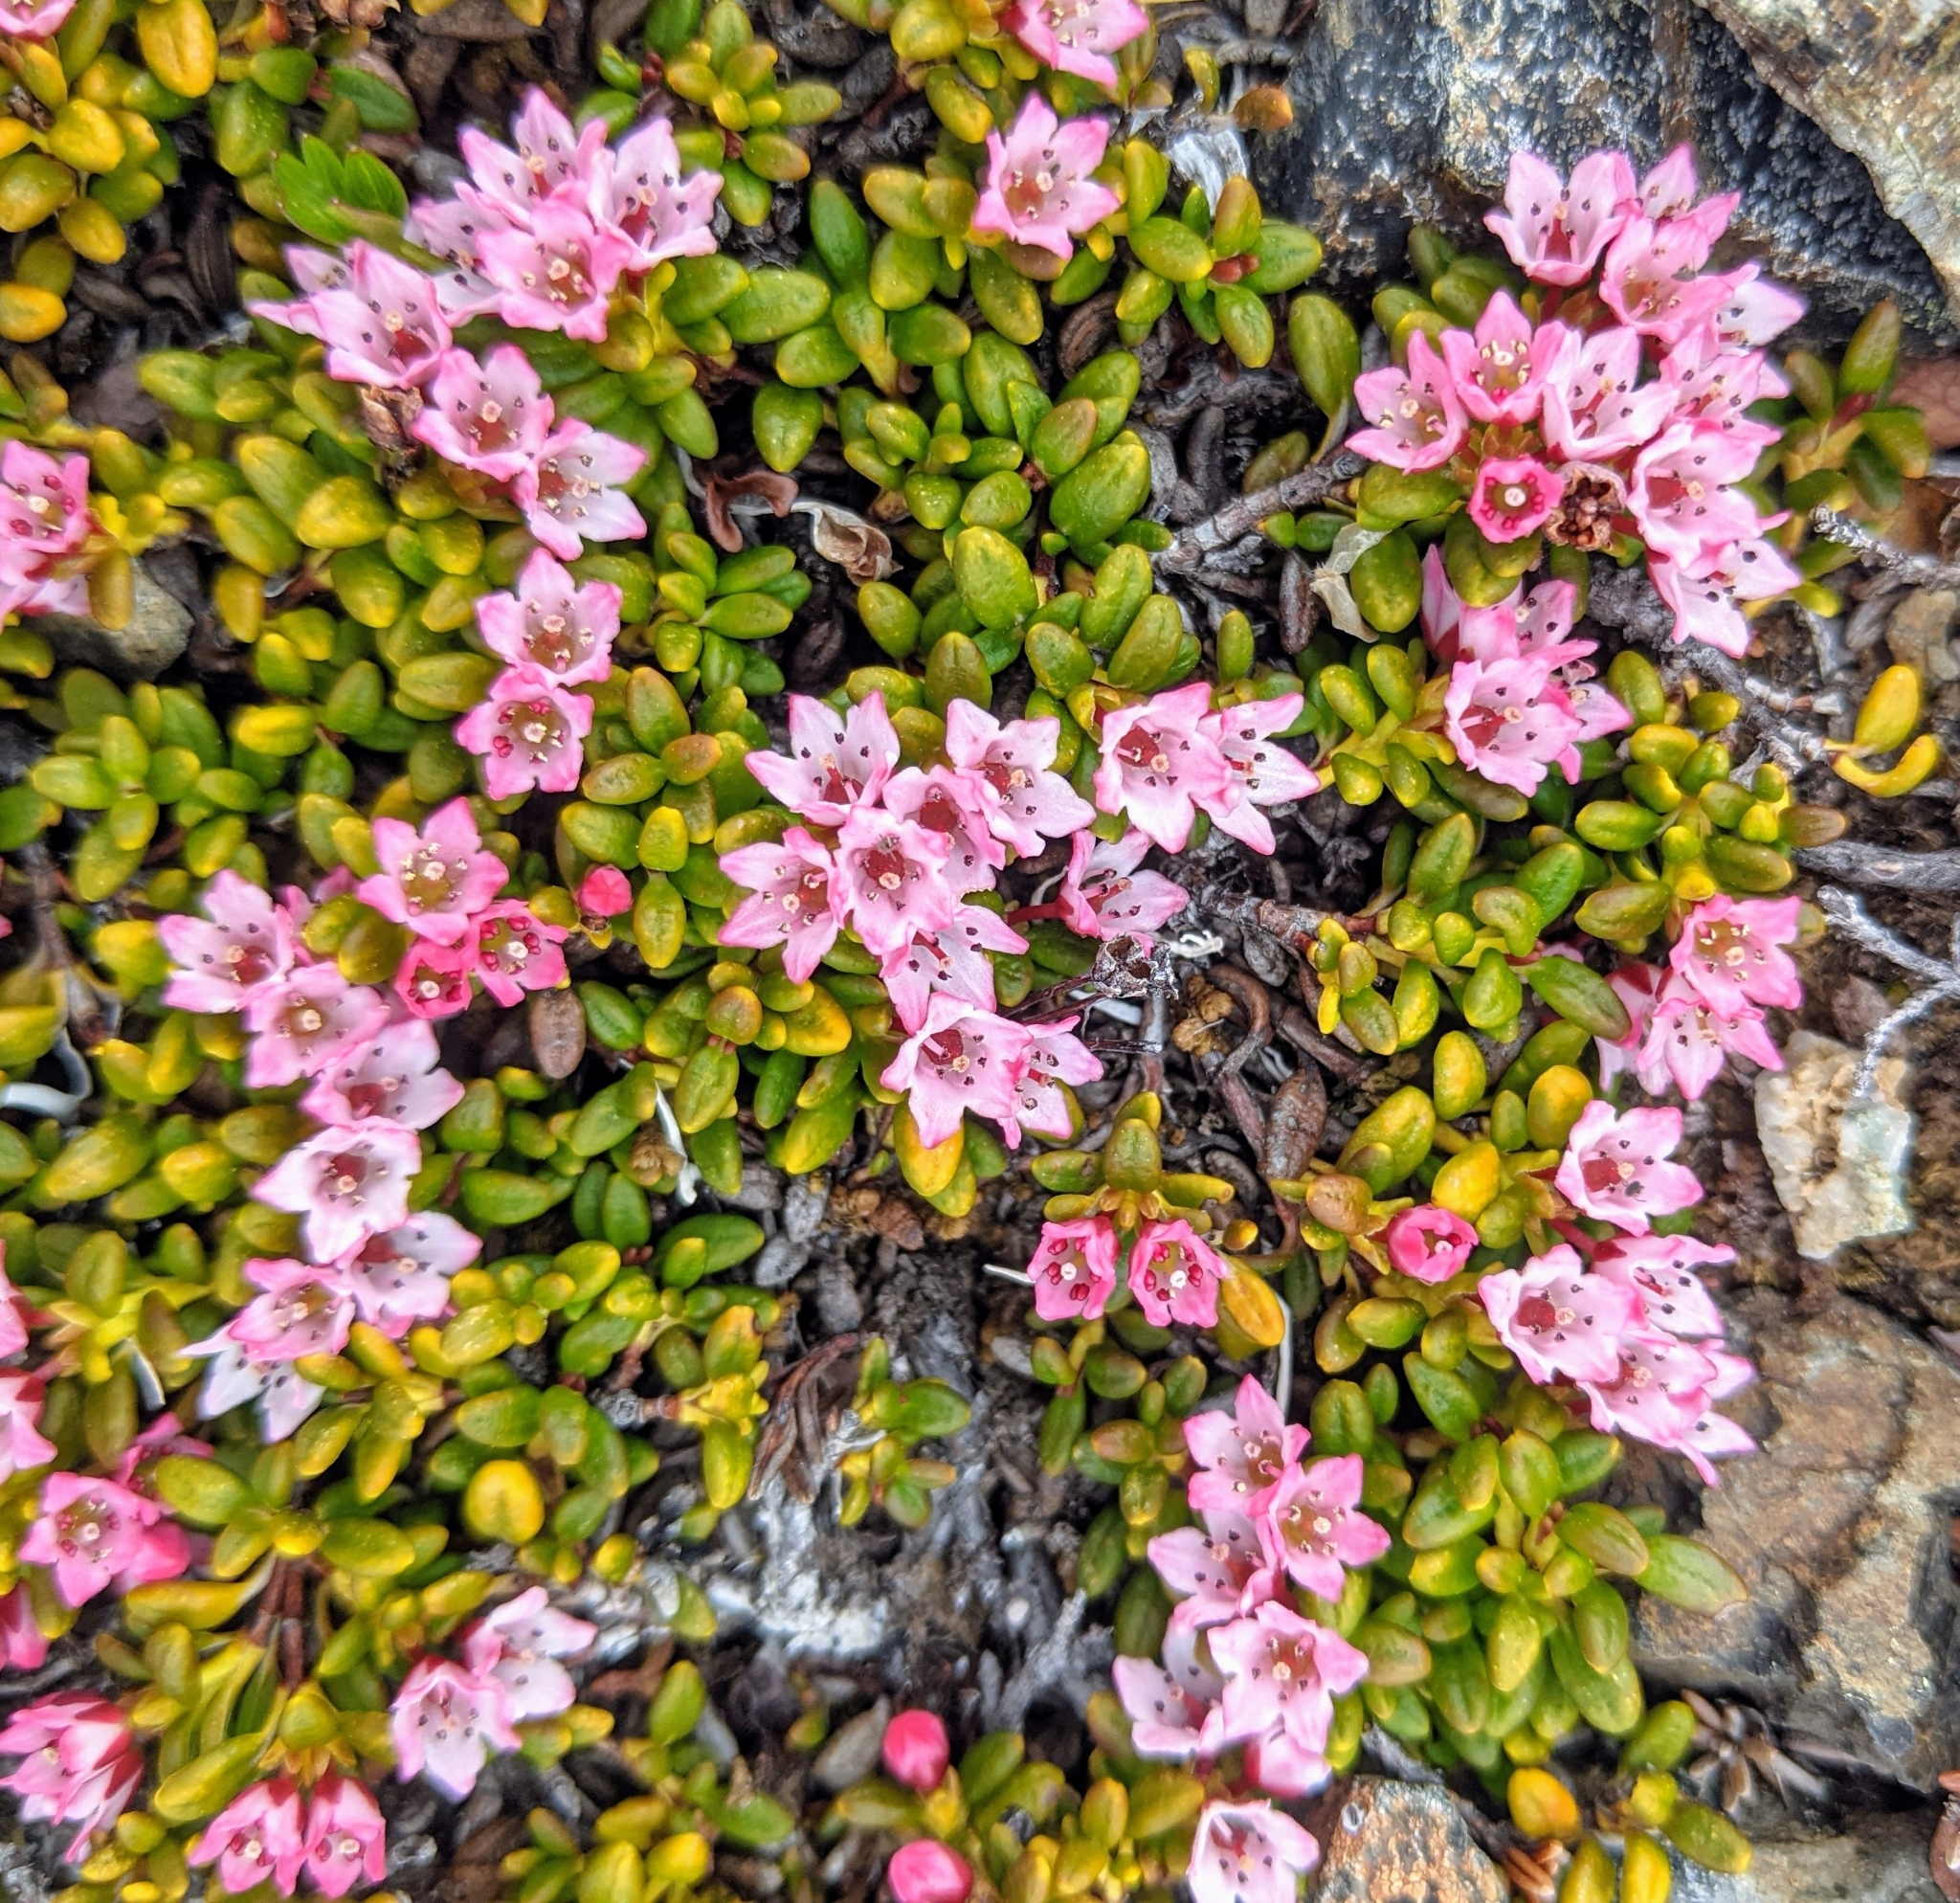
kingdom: Plantae
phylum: Tracheophyta
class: Magnoliopsida
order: Ericales
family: Ericaceae
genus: Kalmia
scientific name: Kalmia procumbens
